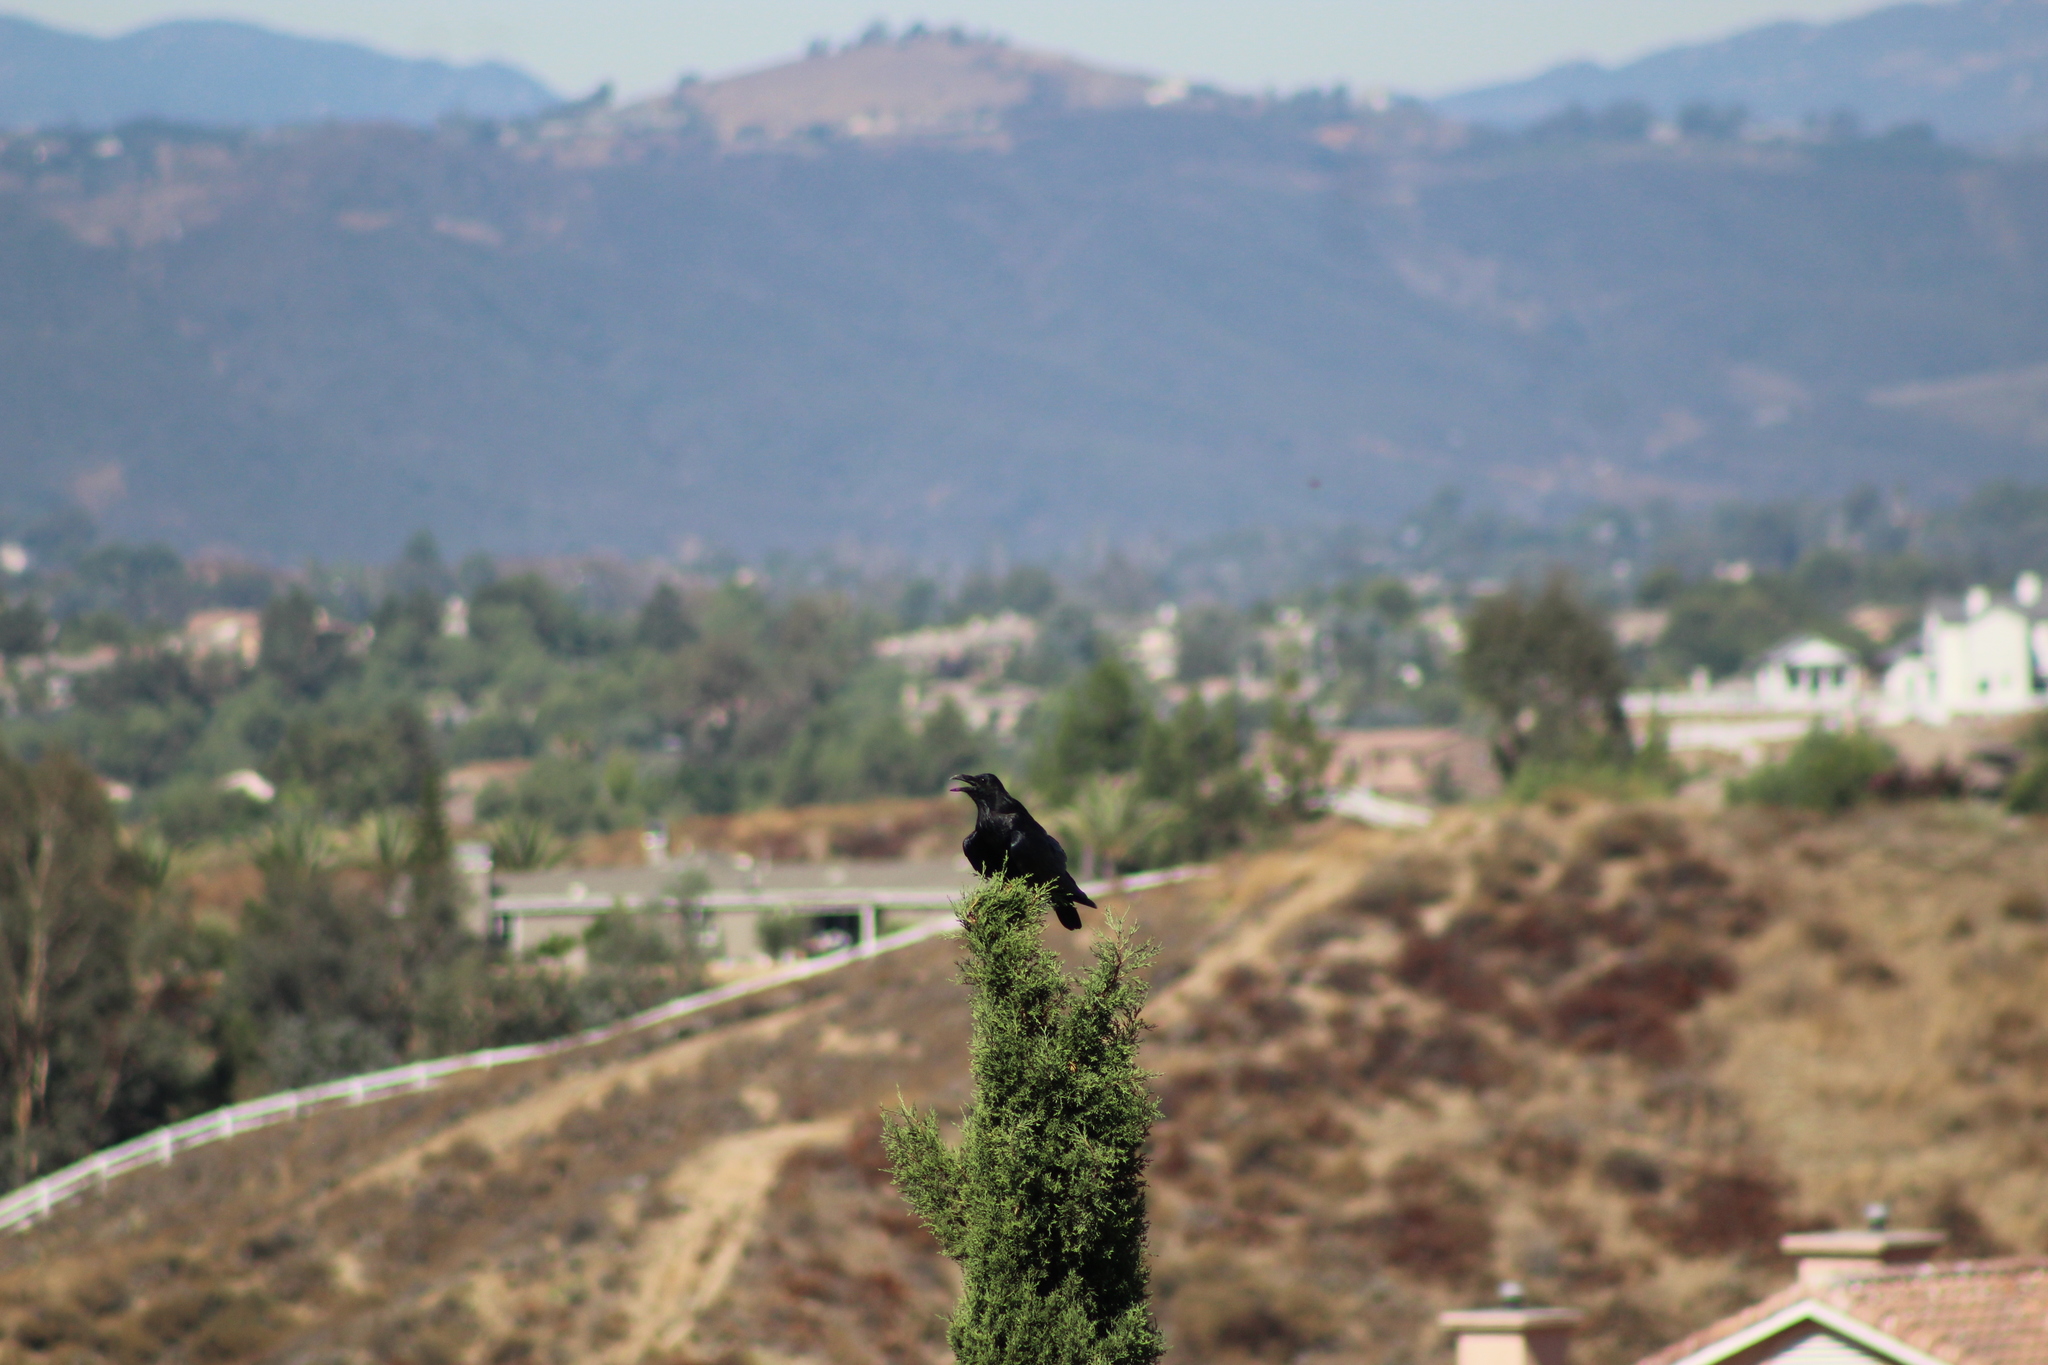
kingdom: Animalia
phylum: Chordata
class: Aves
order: Passeriformes
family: Corvidae
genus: Corvus
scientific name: Corvus corax
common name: Common raven
